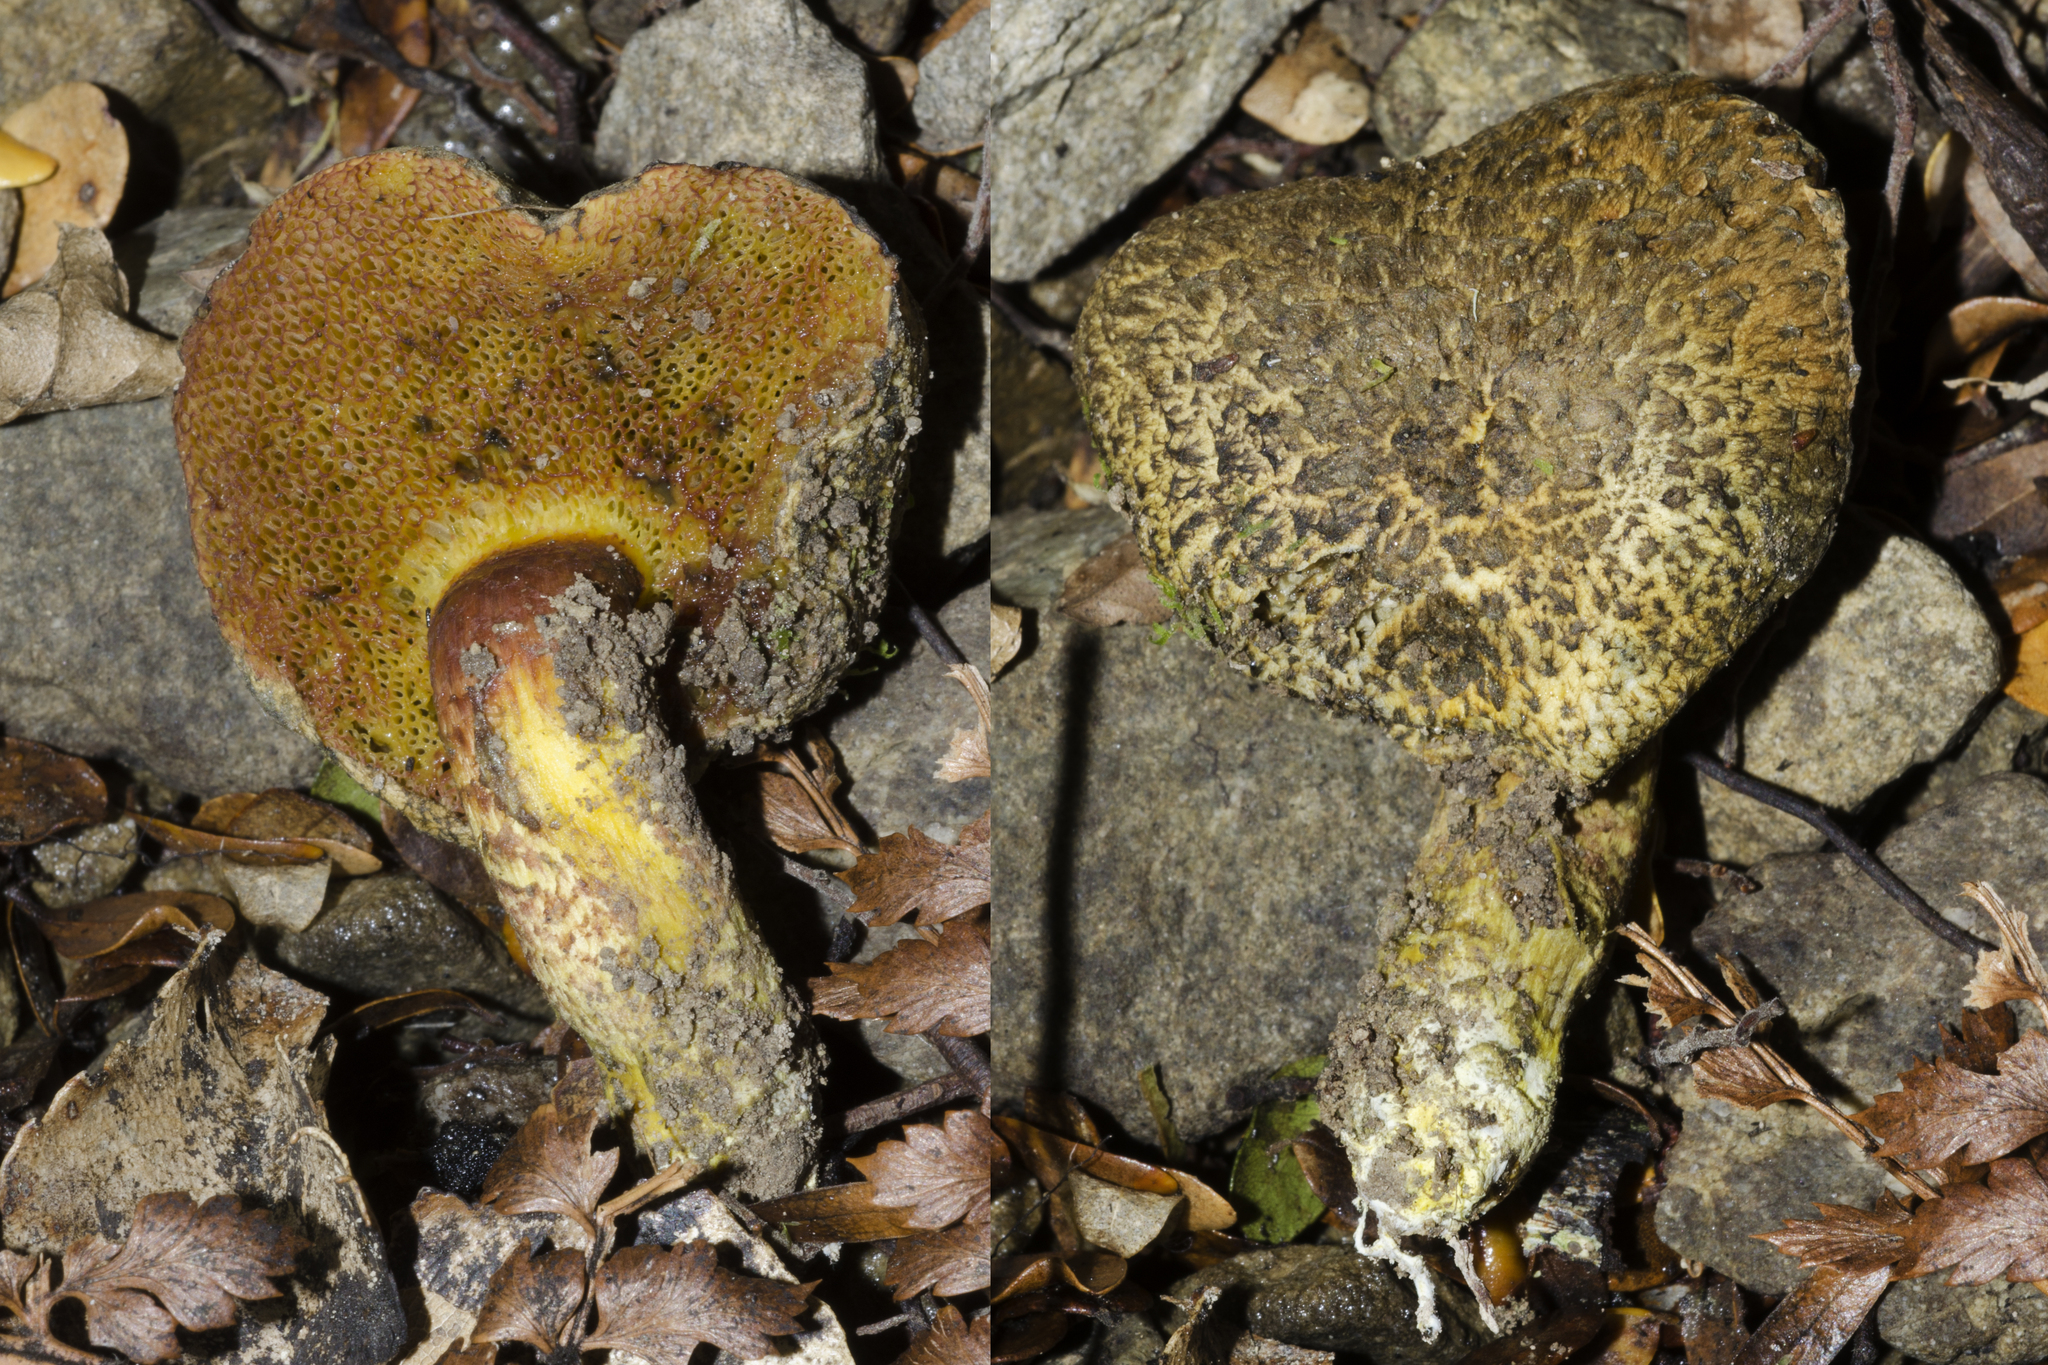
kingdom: Fungi
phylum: Basidiomycota
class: Agaricomycetes
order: Boletales
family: Boletaceae
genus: Amoenoboletus
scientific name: Amoenoboletus mcrobbii
